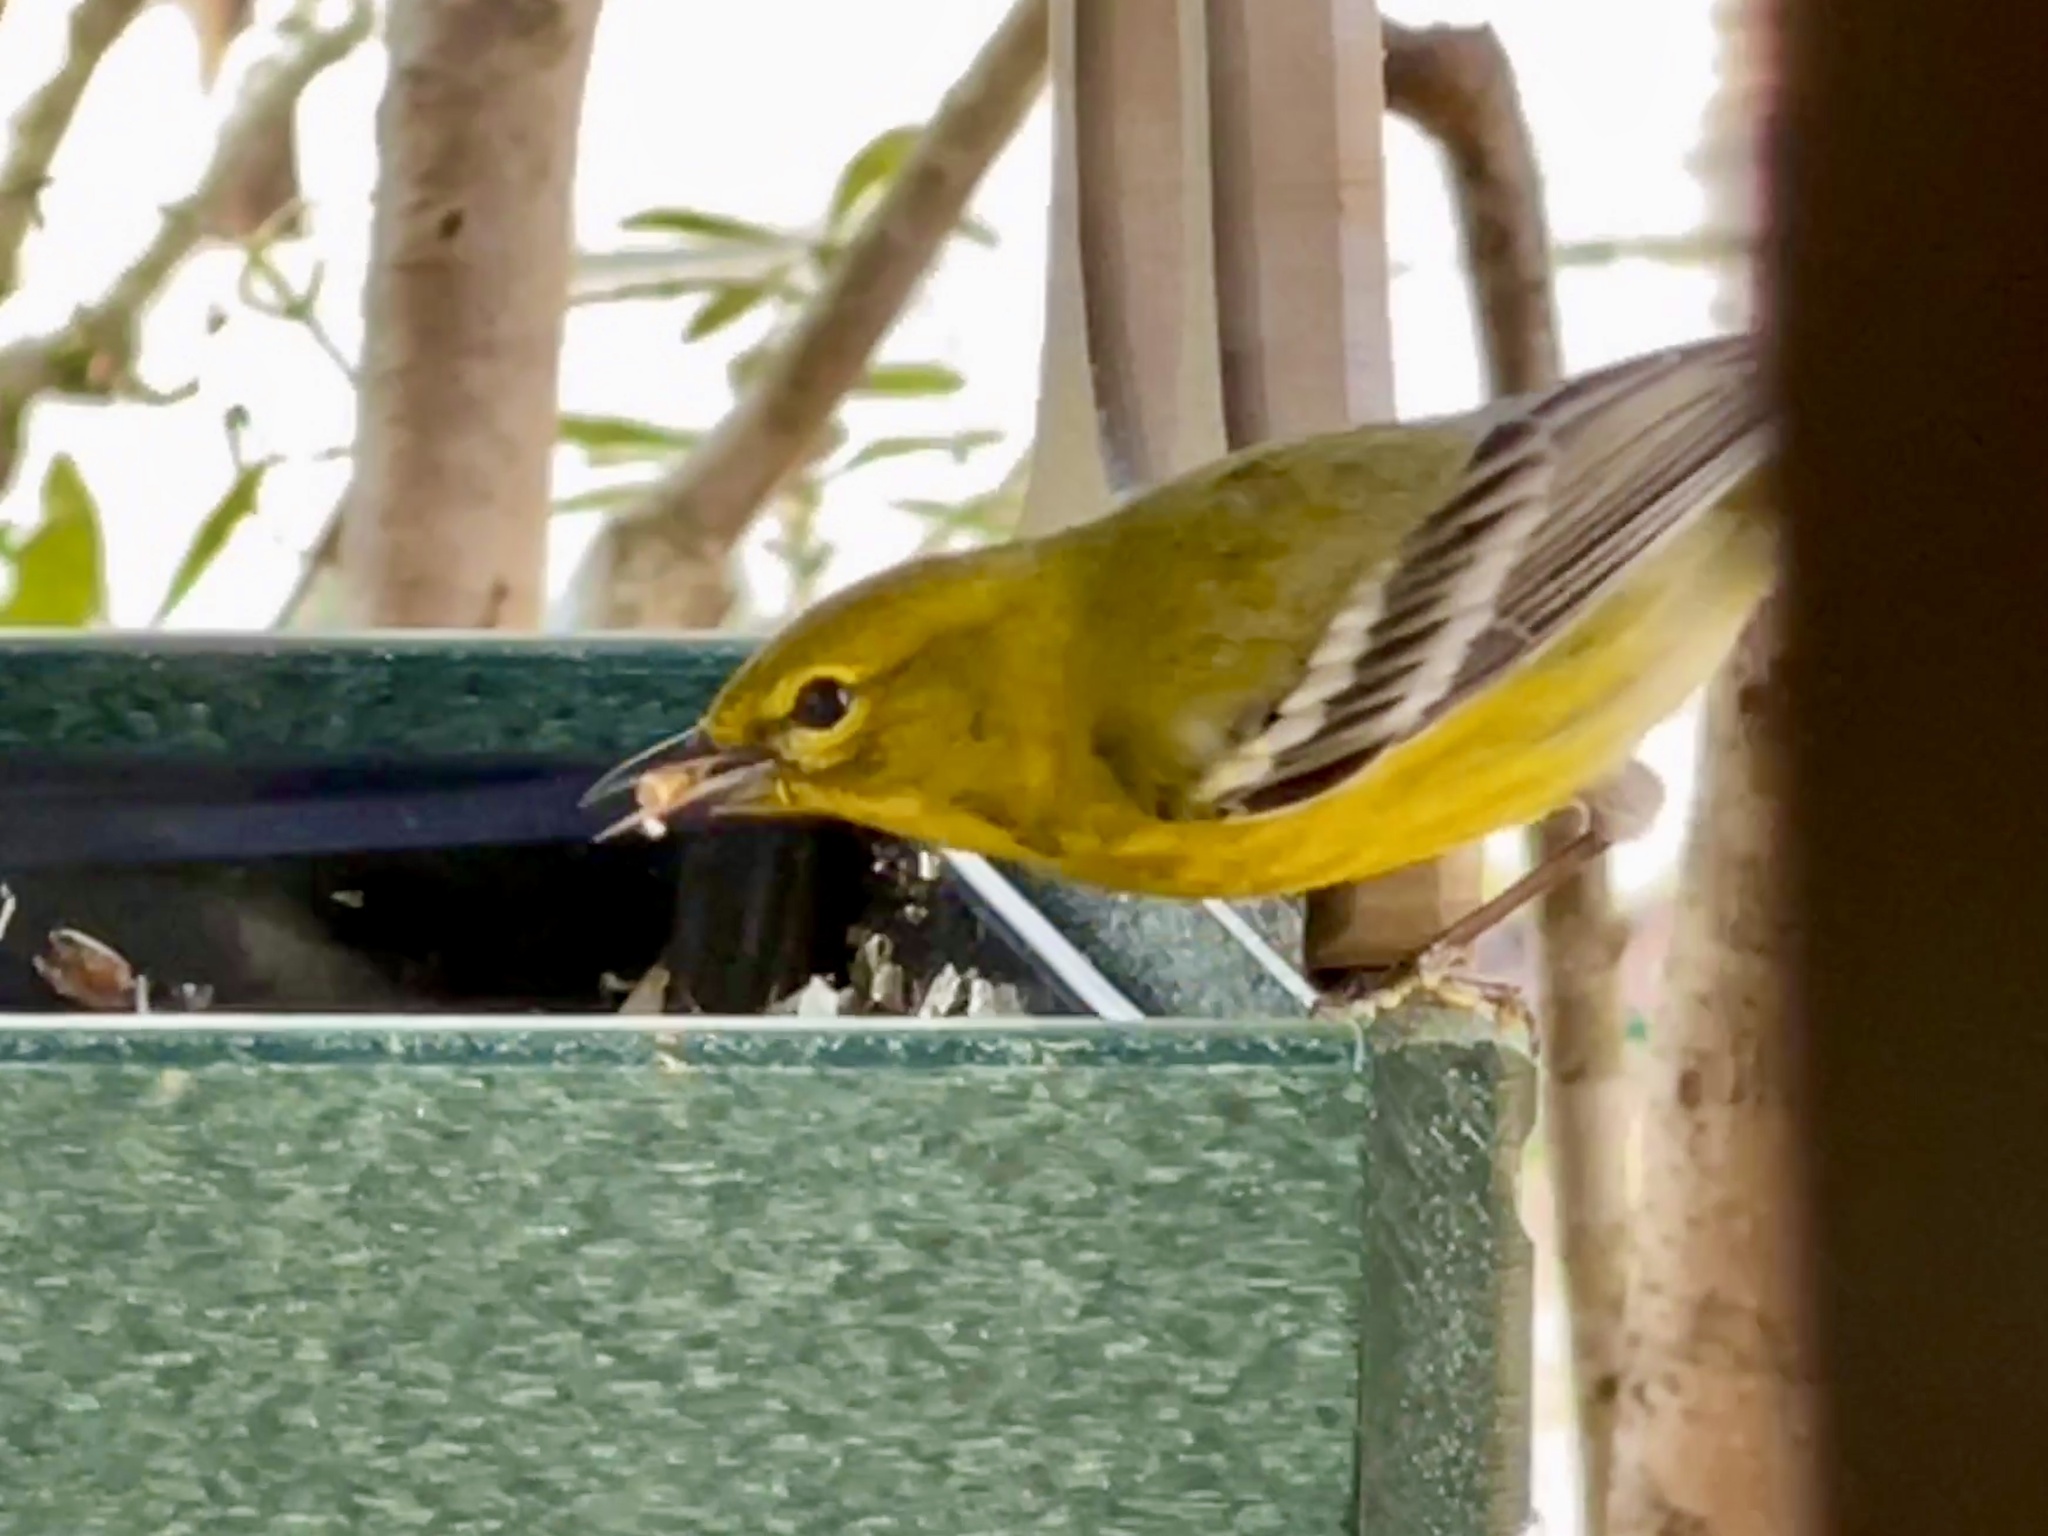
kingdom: Animalia
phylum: Chordata
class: Aves
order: Passeriformes
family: Parulidae
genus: Setophaga
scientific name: Setophaga pinus
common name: Pine warbler
